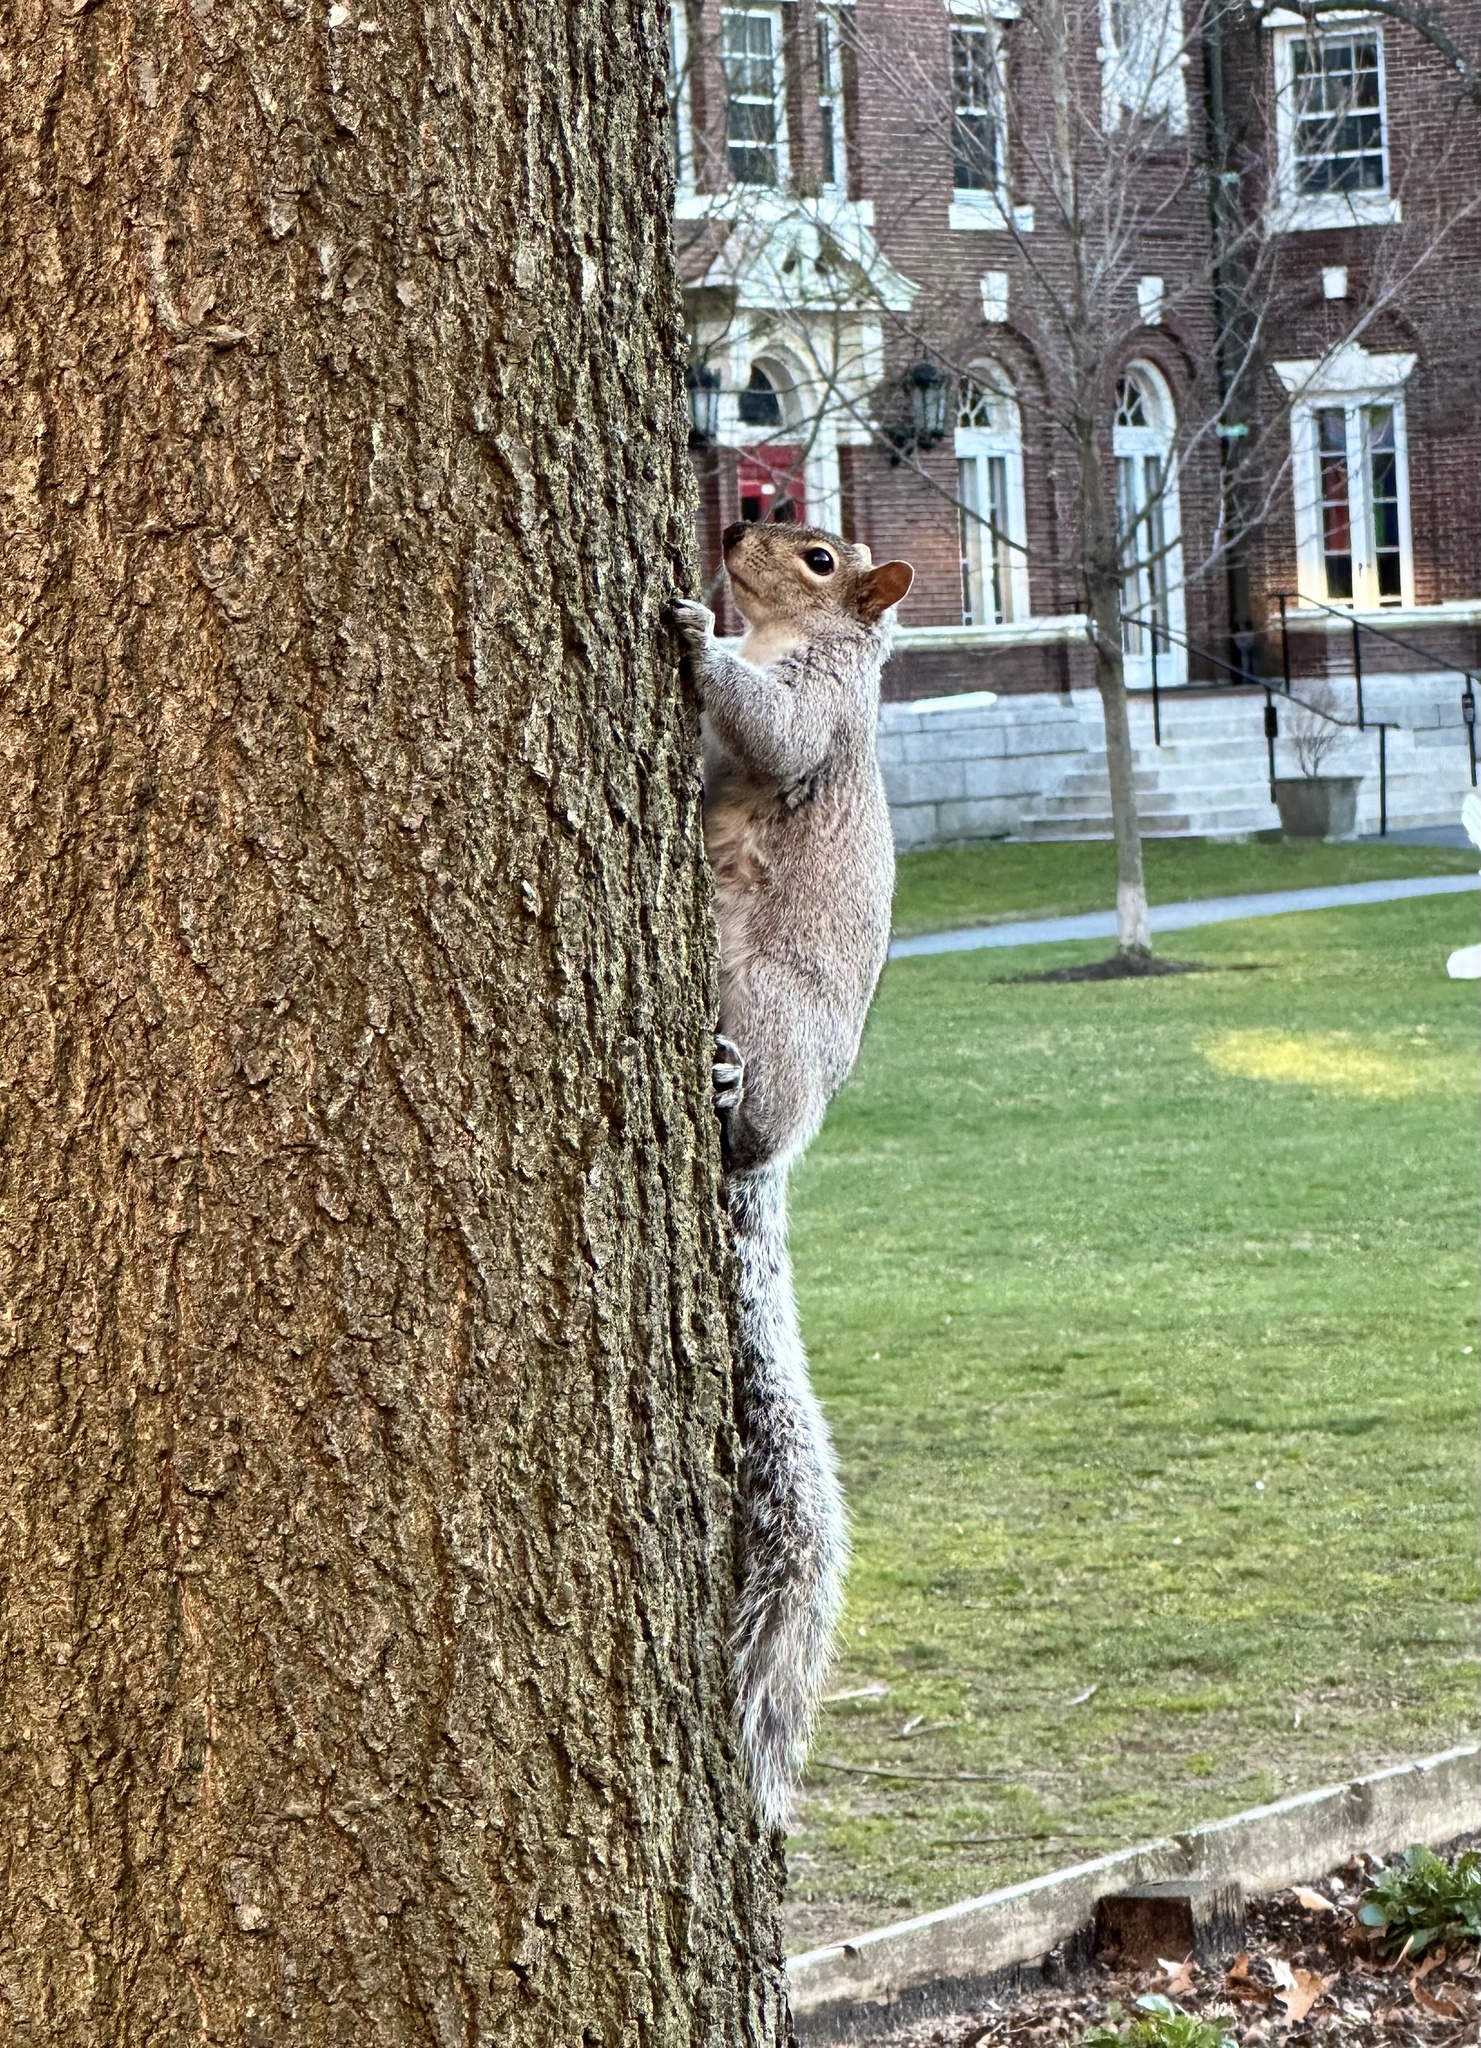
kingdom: Animalia
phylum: Chordata
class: Mammalia
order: Rodentia
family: Sciuridae
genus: Sciurus
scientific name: Sciurus carolinensis
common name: Eastern gray squirrel
